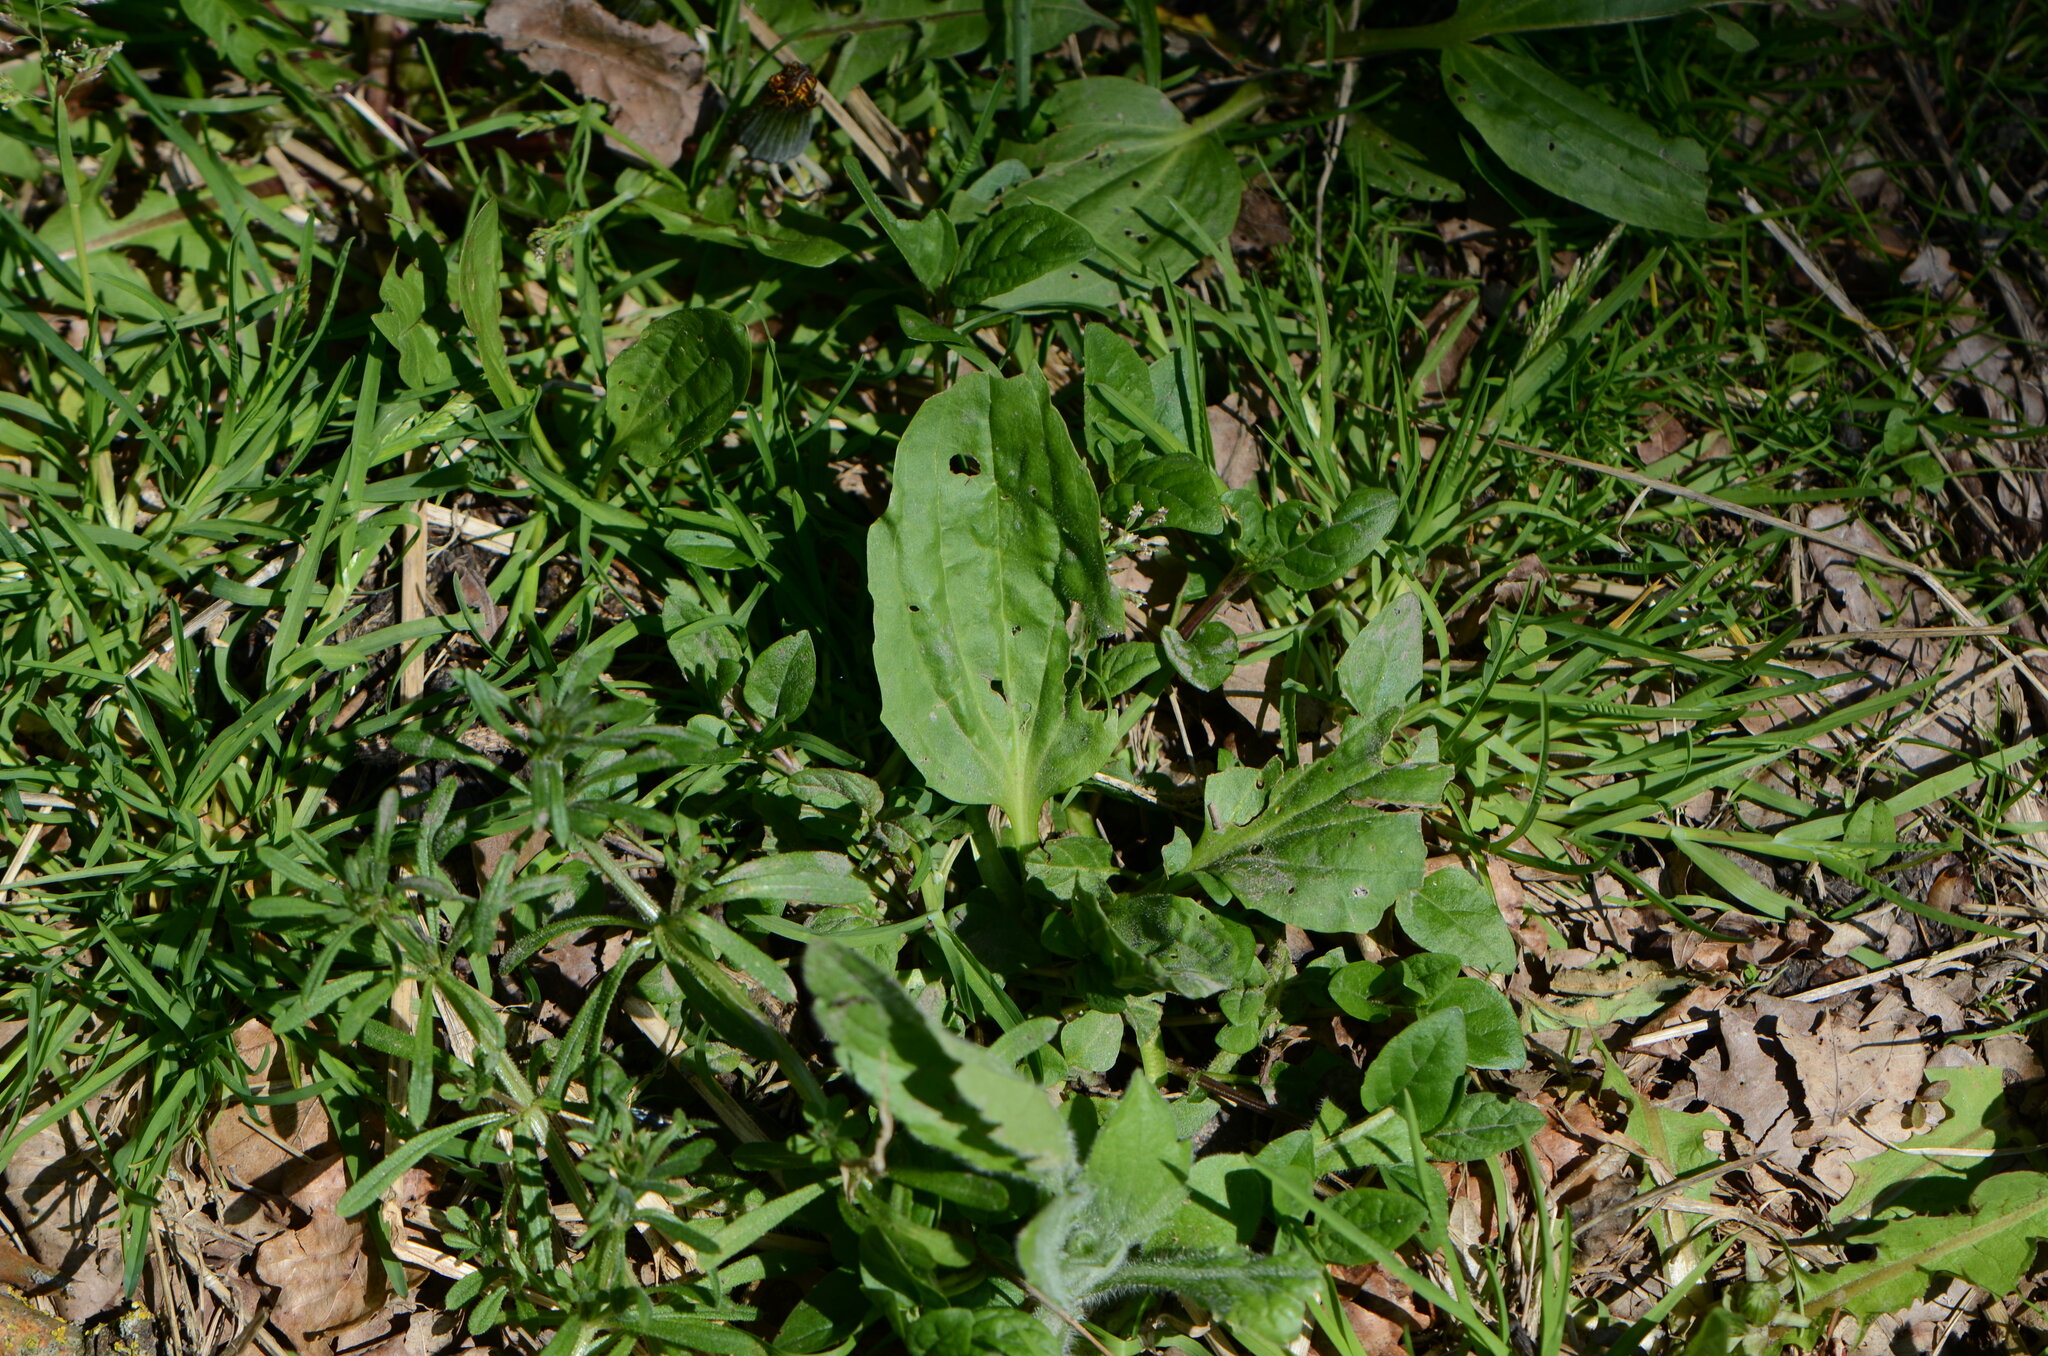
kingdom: Plantae
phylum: Tracheophyta
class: Magnoliopsida
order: Lamiales
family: Plantaginaceae
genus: Plantago
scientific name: Plantago major
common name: Common plantain
